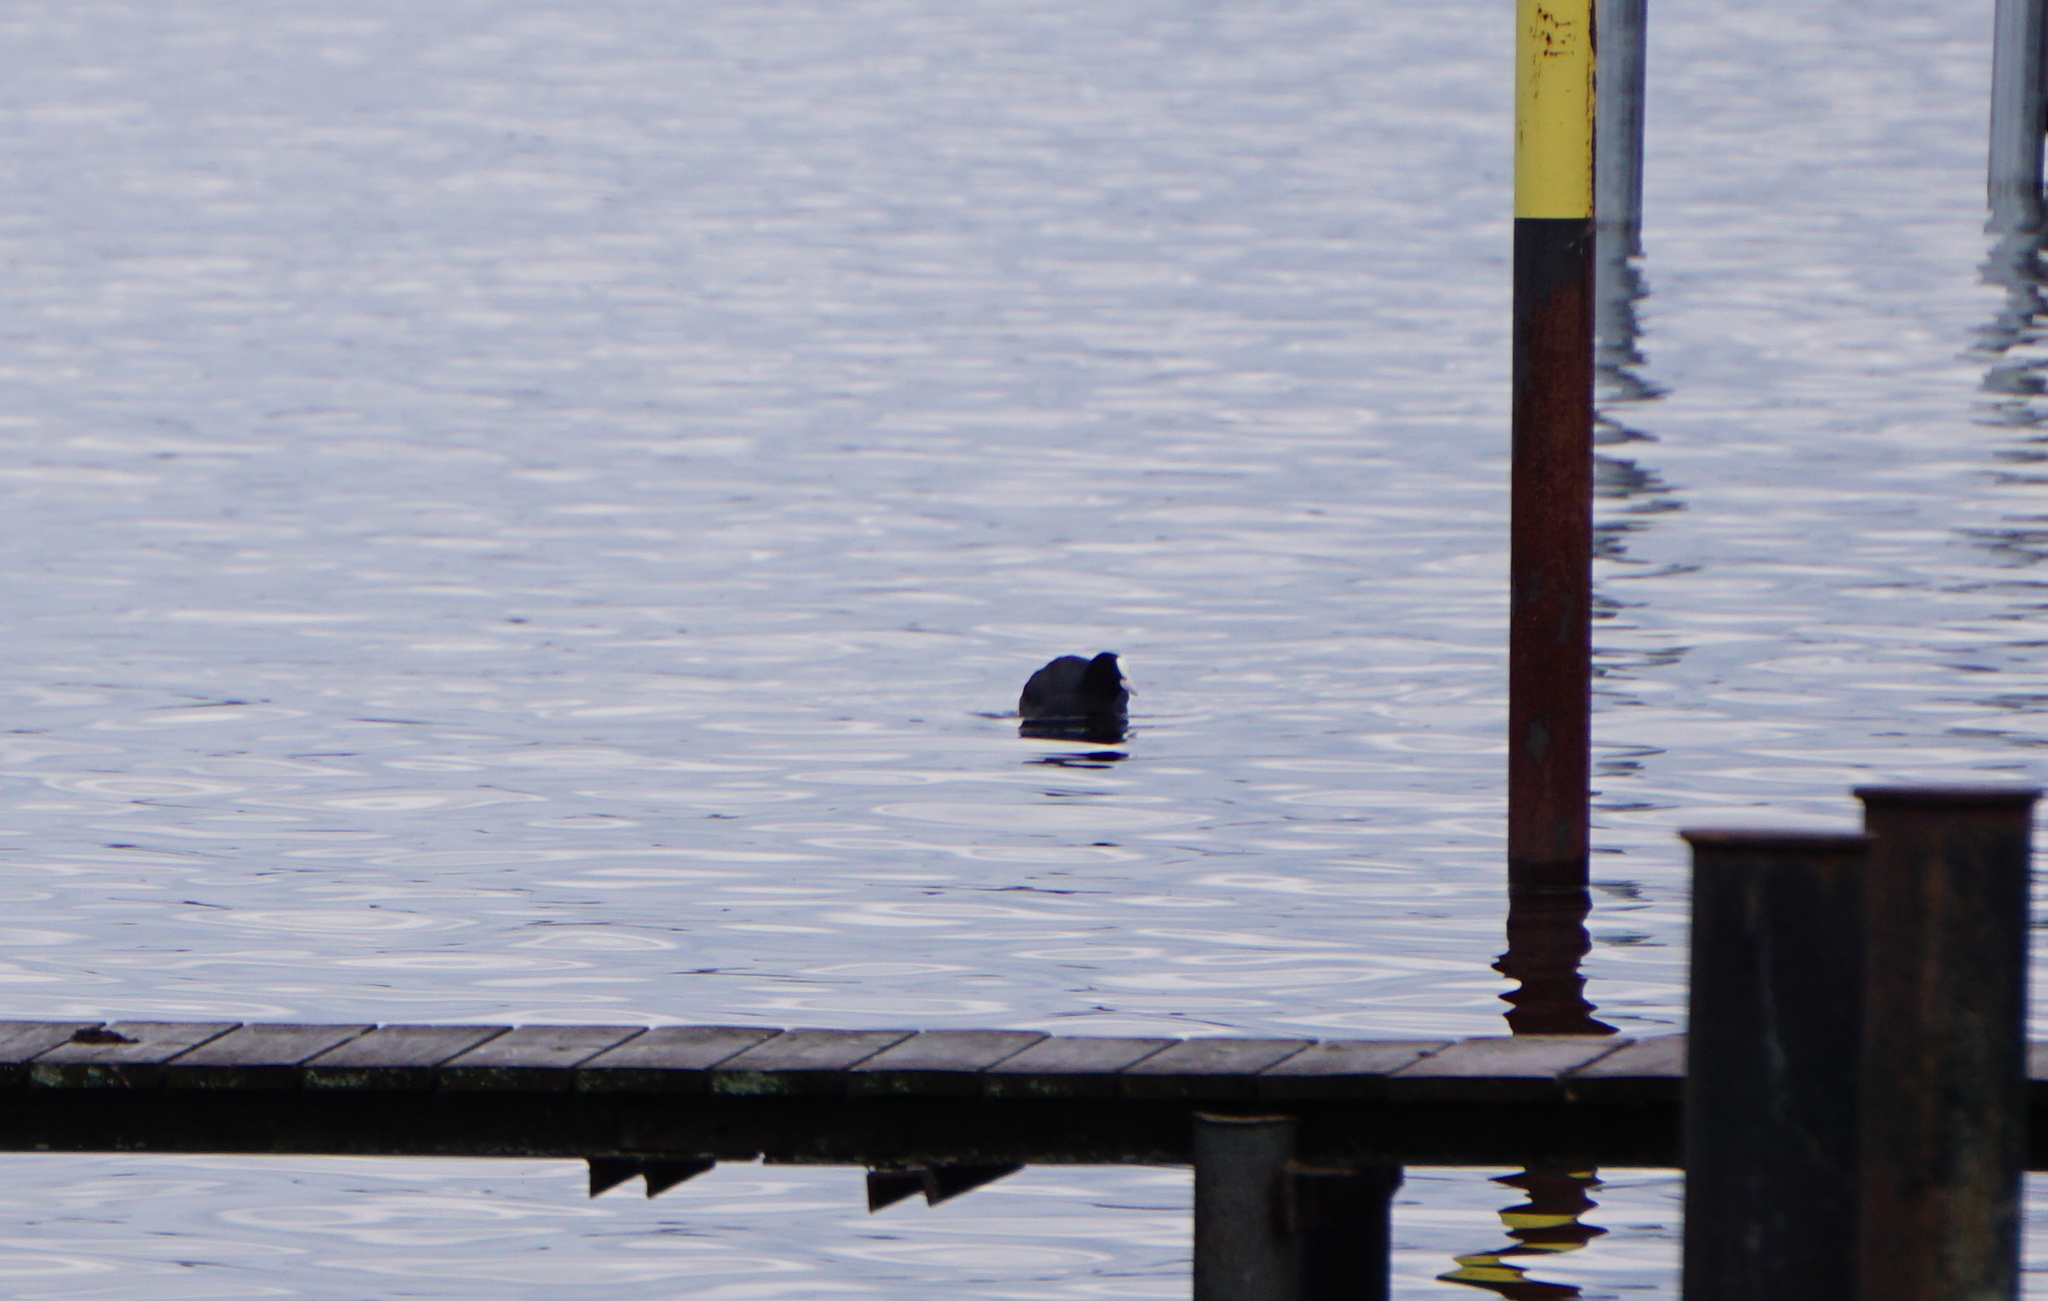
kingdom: Animalia
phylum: Chordata
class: Aves
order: Gruiformes
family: Rallidae
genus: Fulica
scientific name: Fulica atra
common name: Eurasian coot
